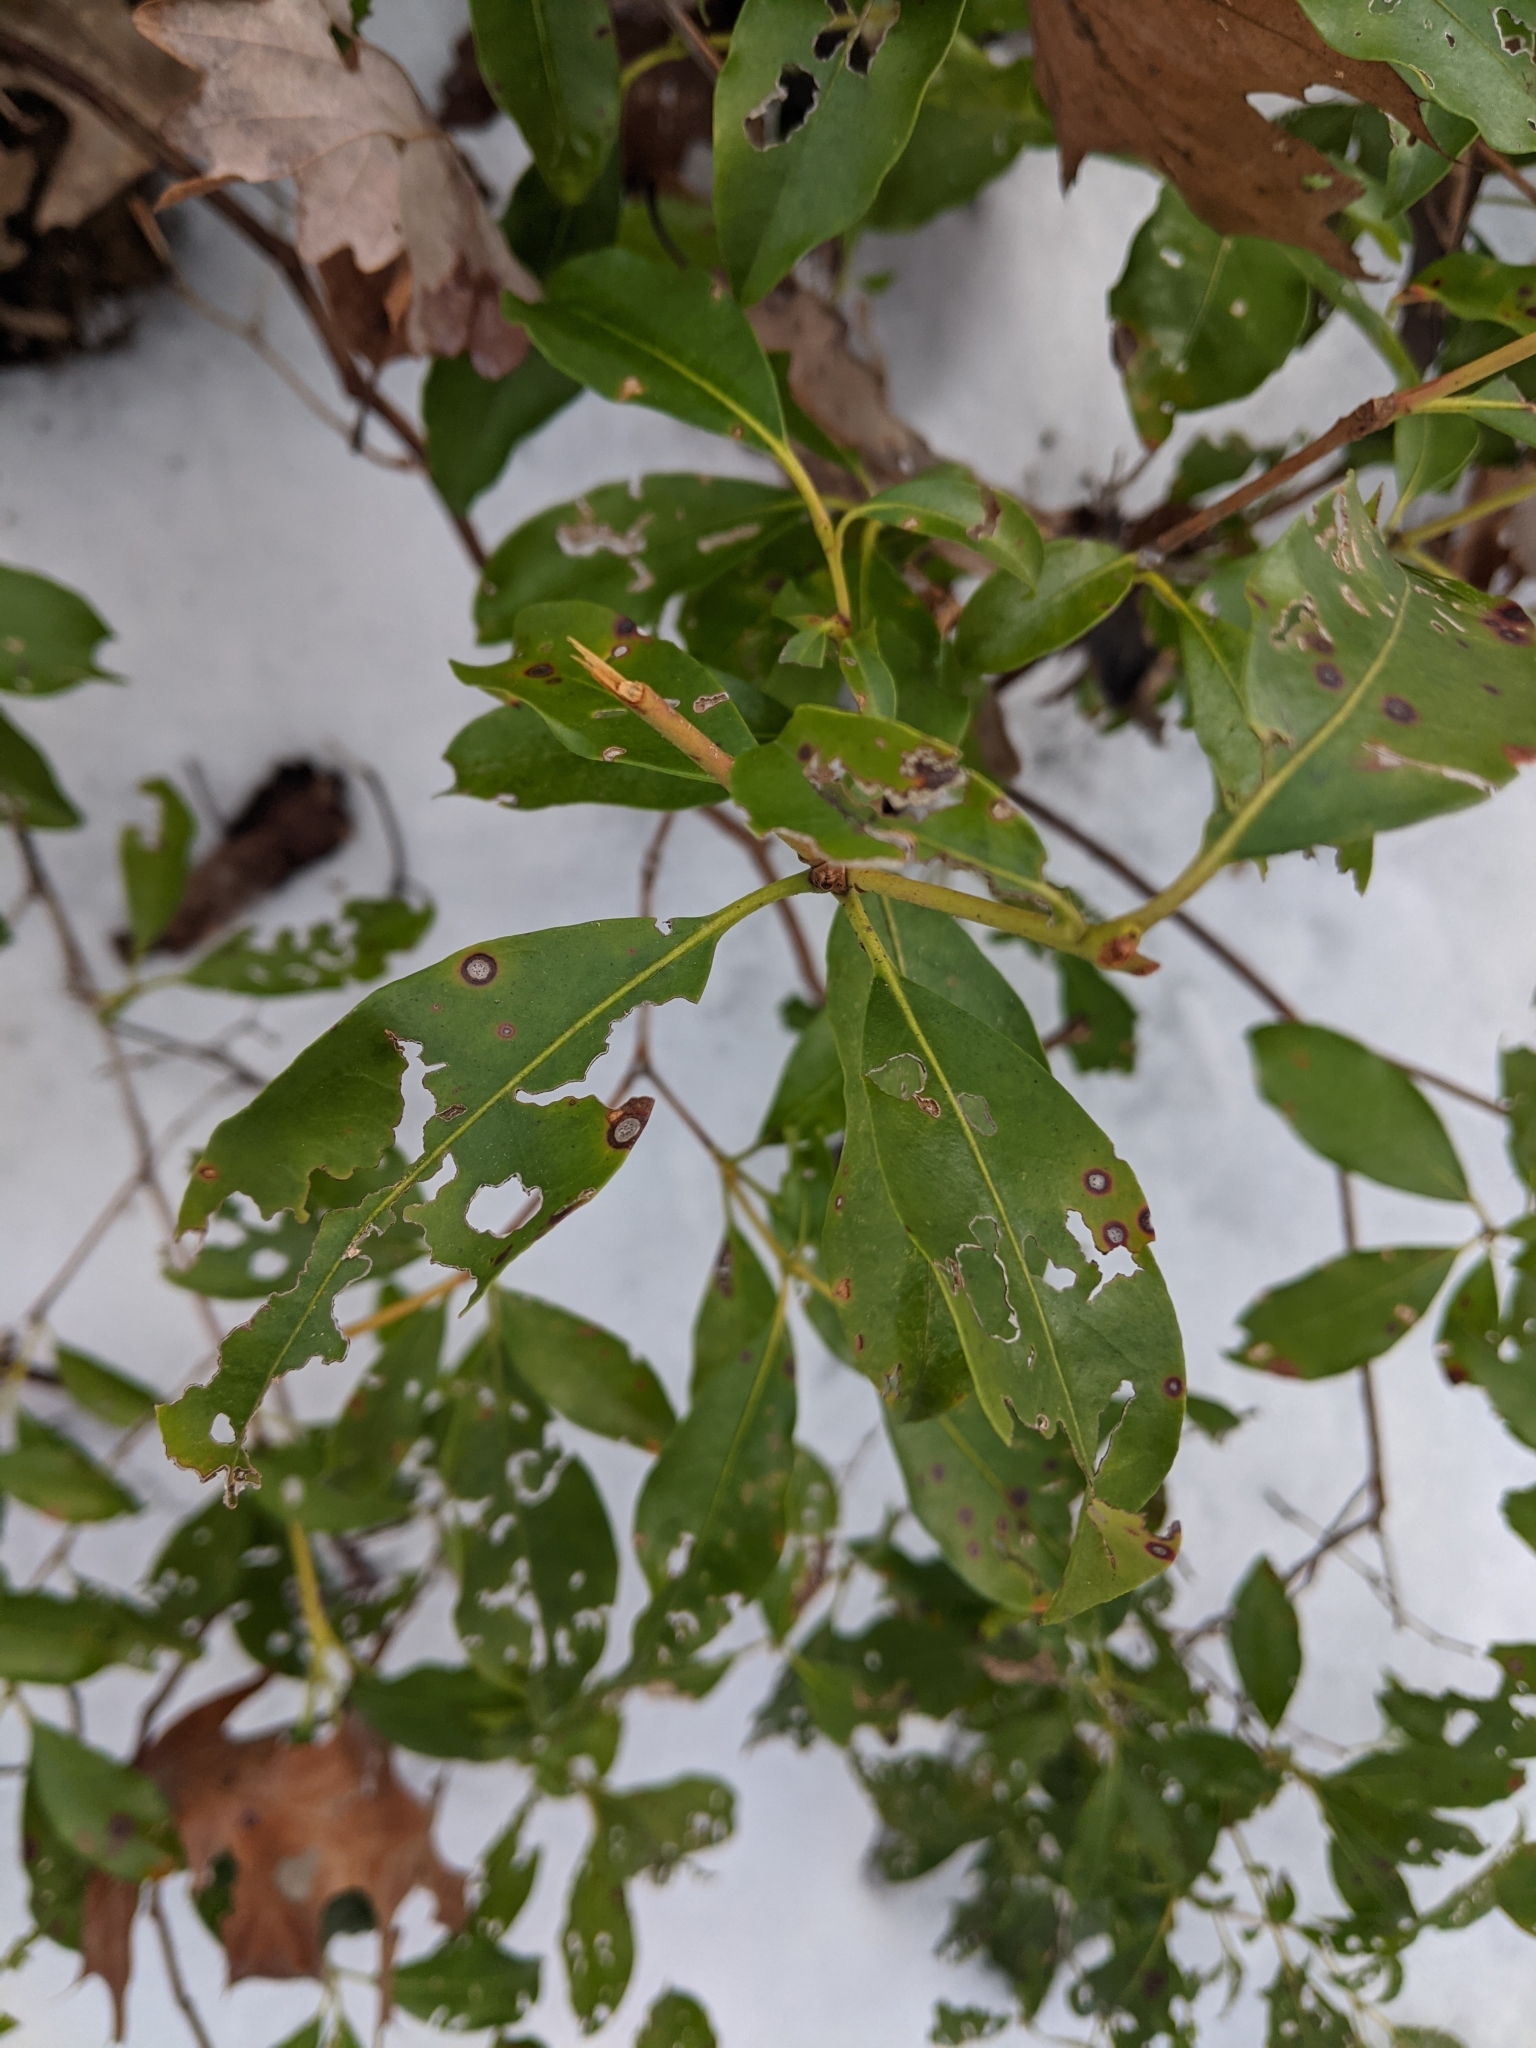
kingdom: Plantae
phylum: Tracheophyta
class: Magnoliopsida
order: Ericales
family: Ericaceae
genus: Kalmia
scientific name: Kalmia latifolia
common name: Mountain-laurel
